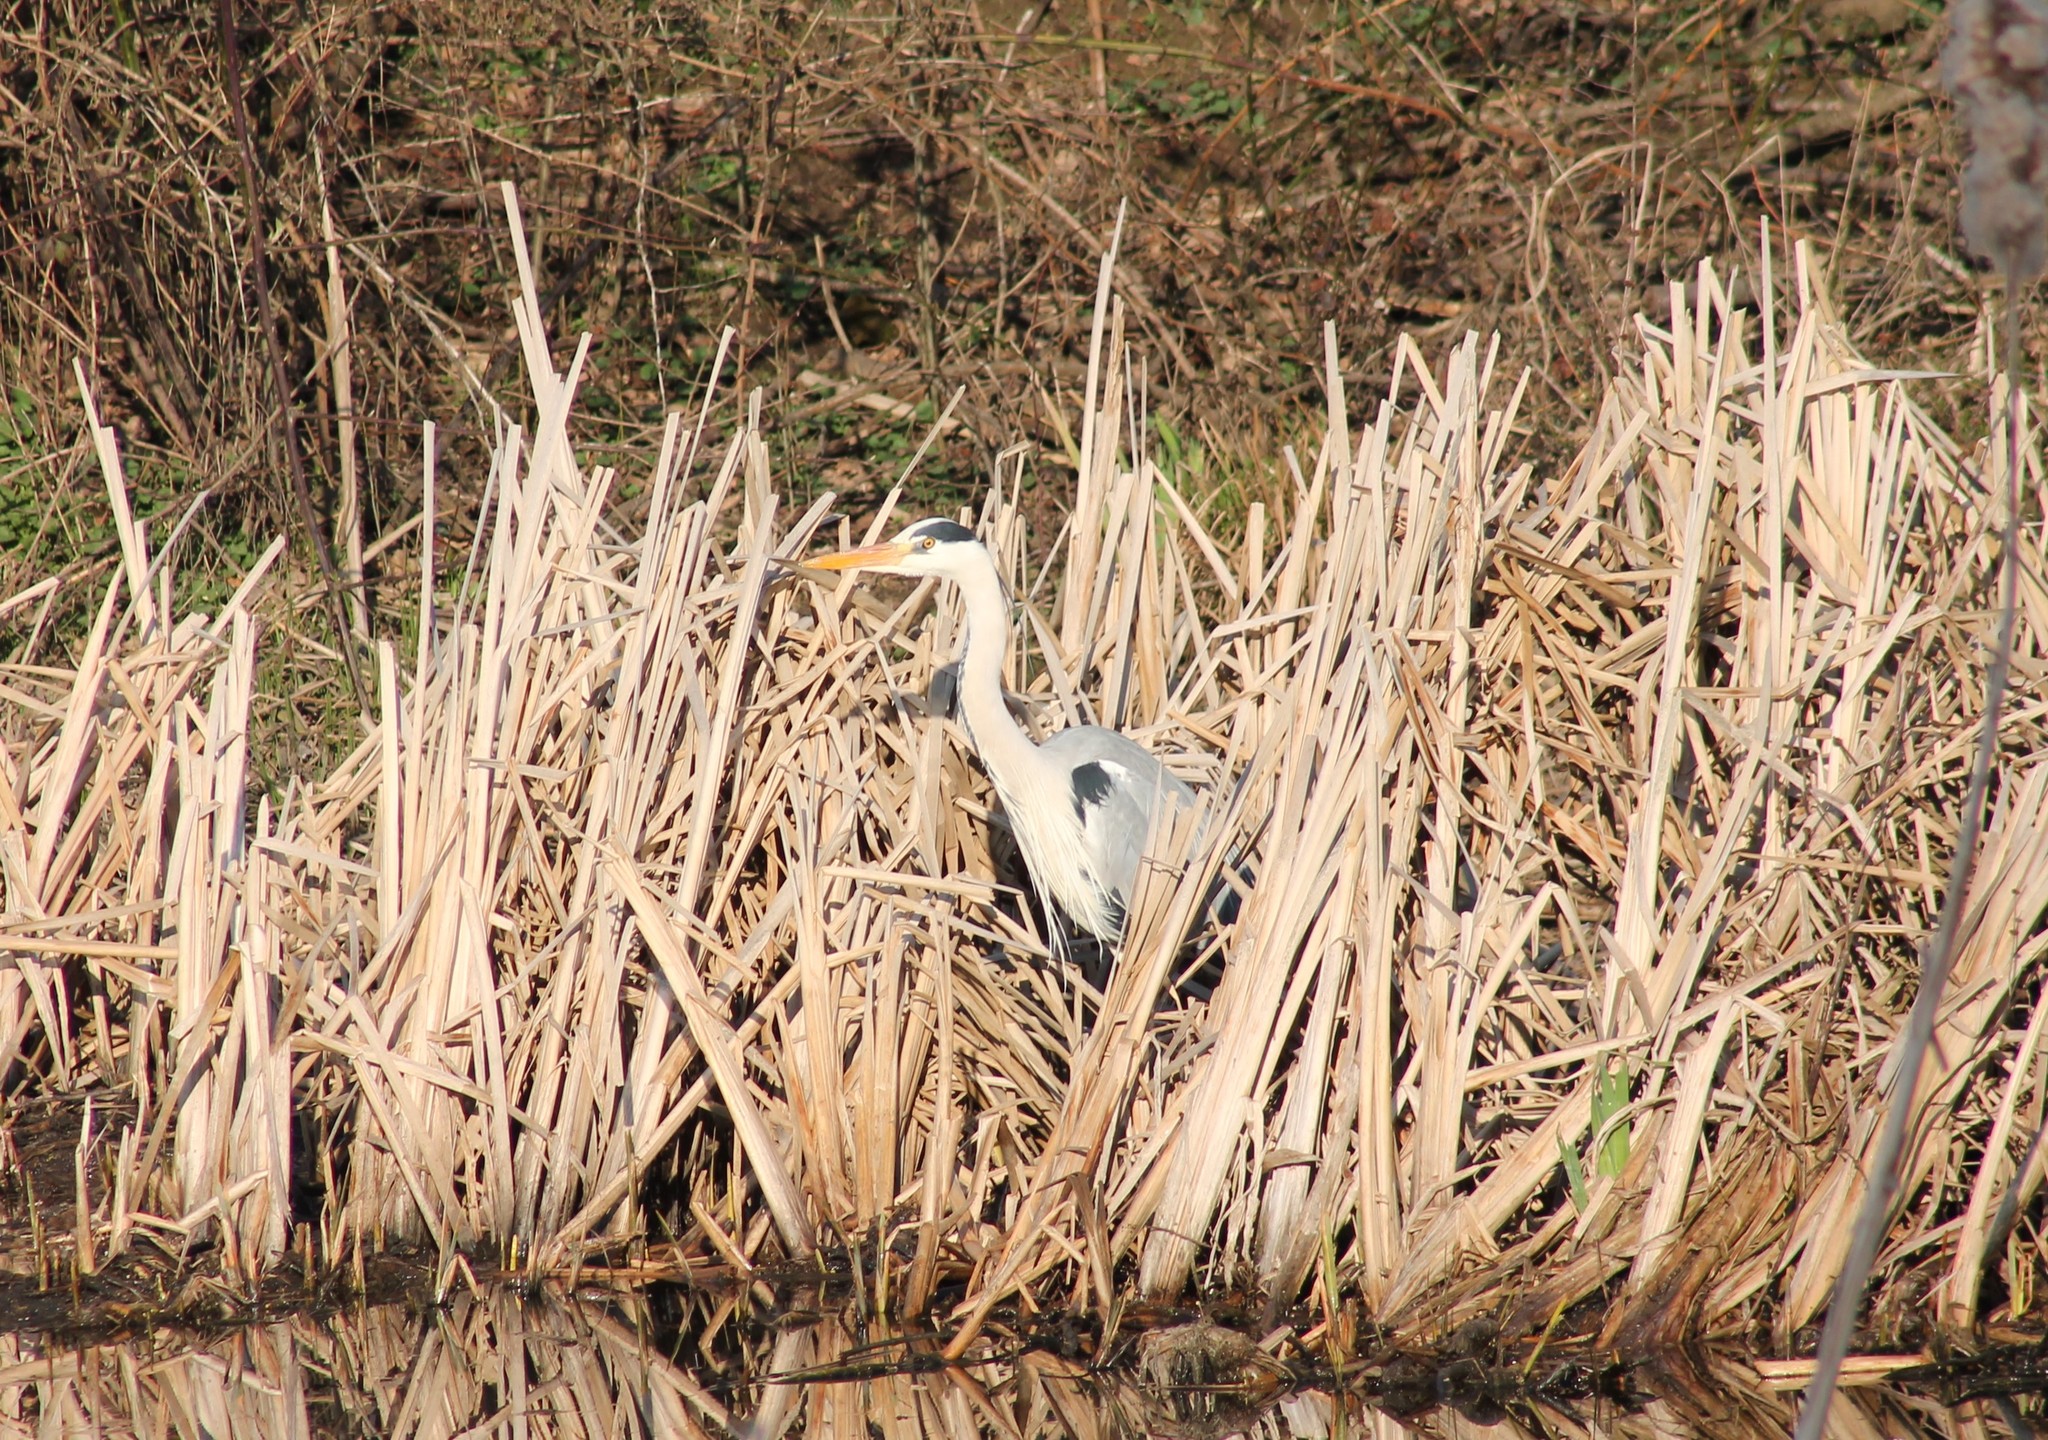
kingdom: Animalia
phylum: Chordata
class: Aves
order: Pelecaniformes
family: Ardeidae
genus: Ardea
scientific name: Ardea cinerea
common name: Grey heron
